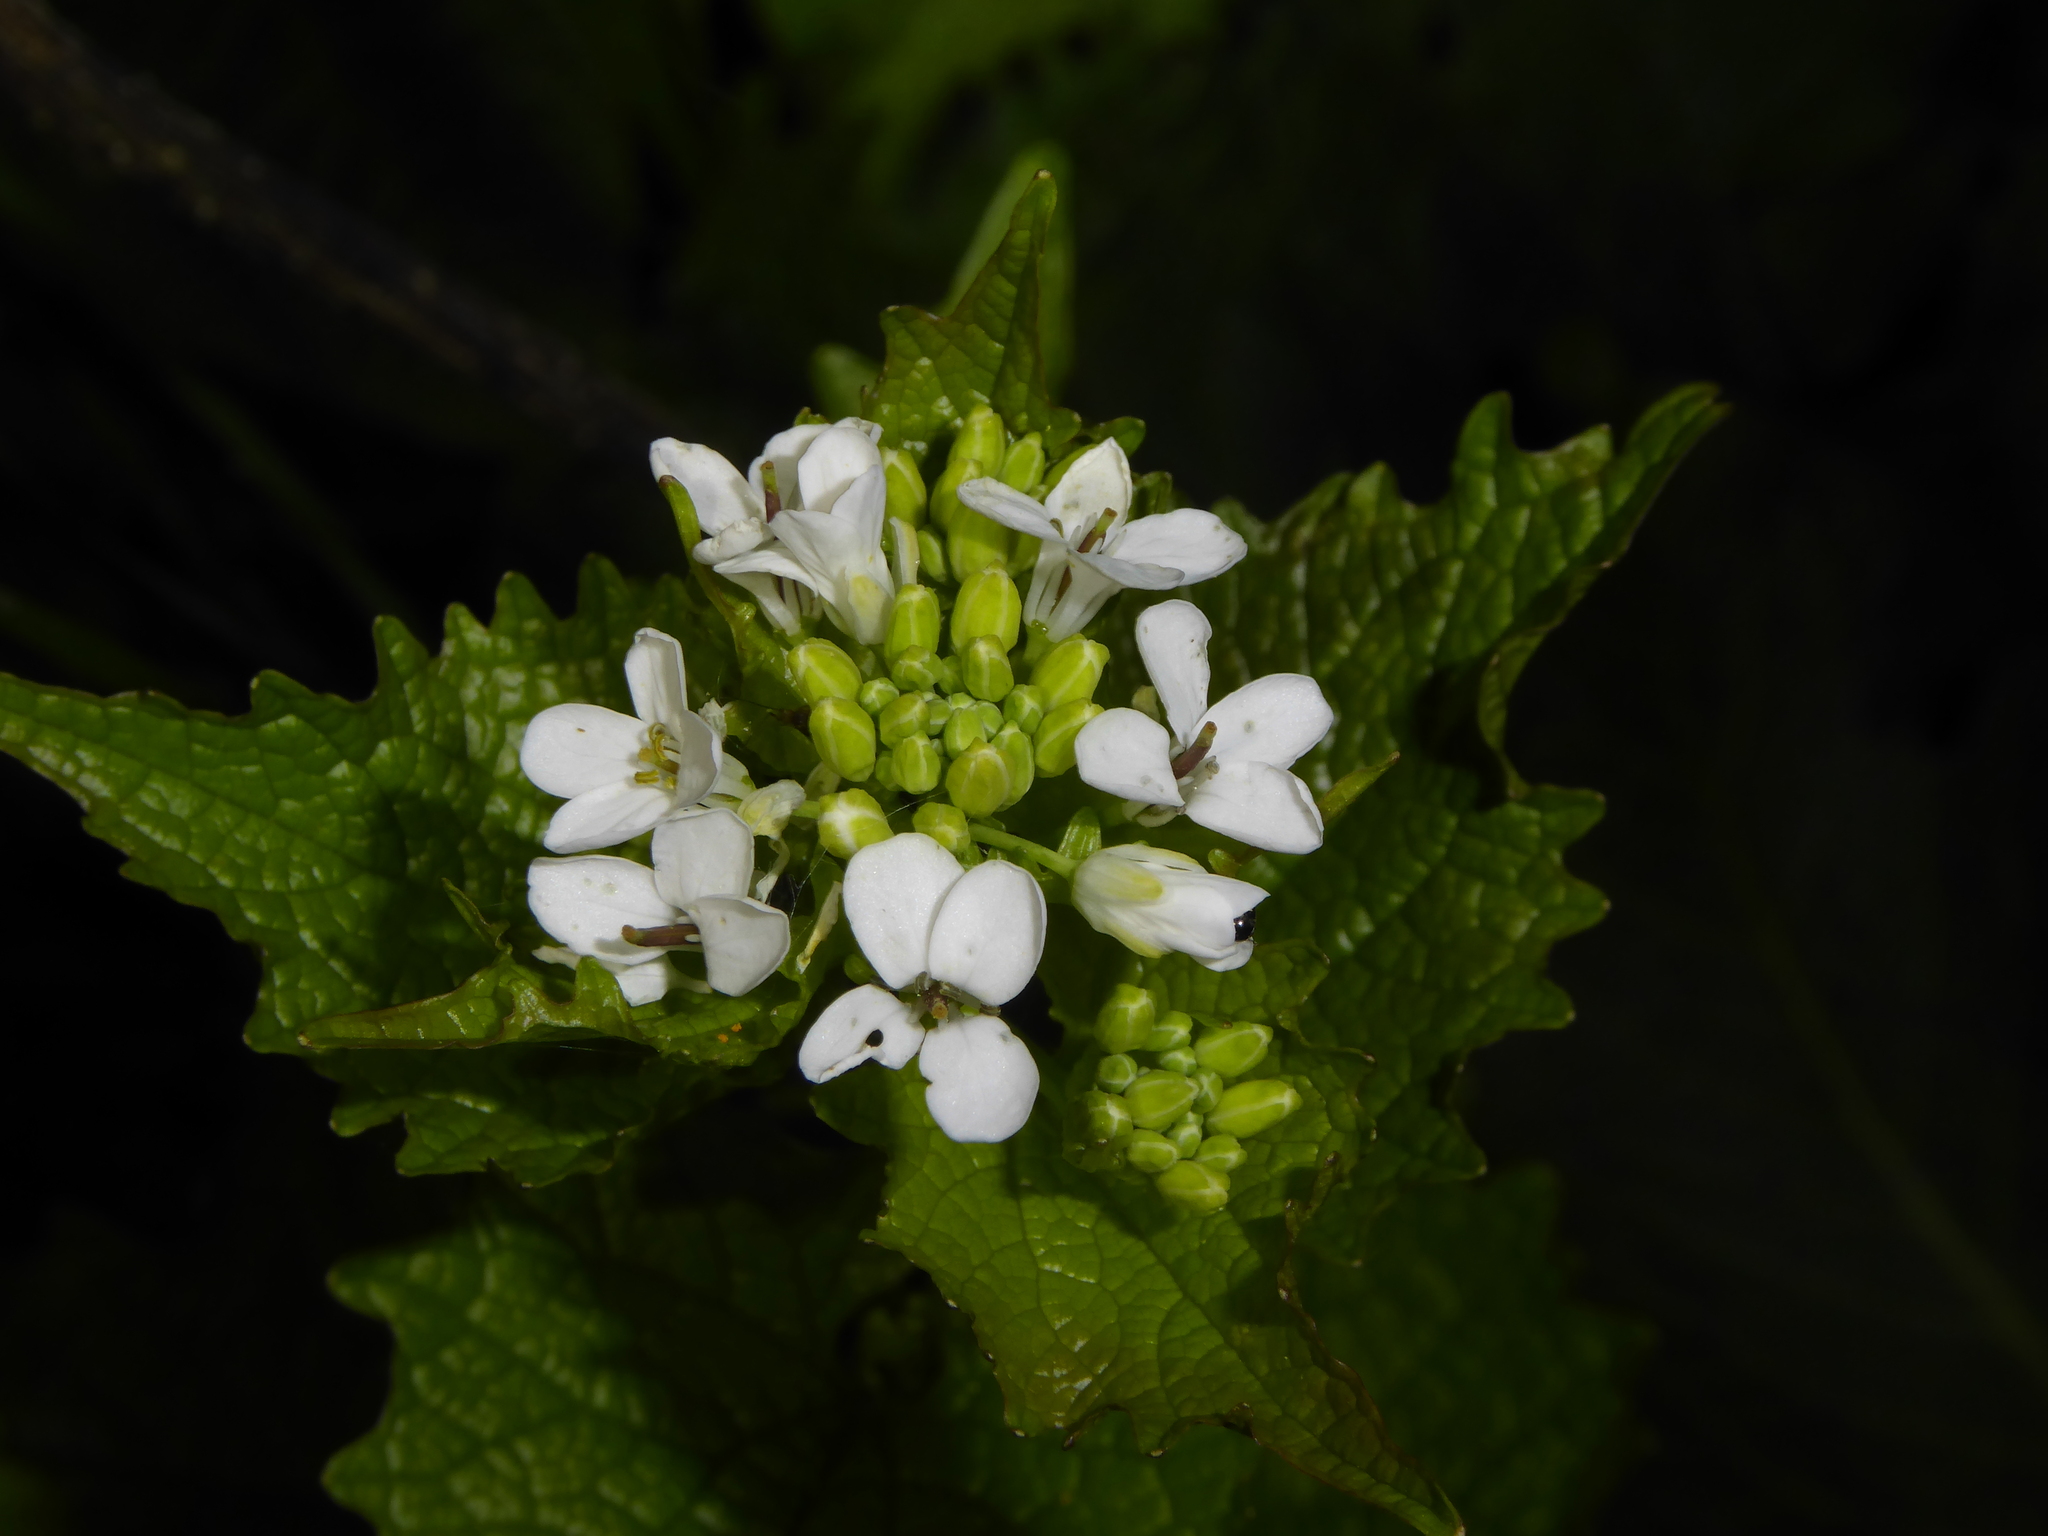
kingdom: Plantae
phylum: Tracheophyta
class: Magnoliopsida
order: Brassicales
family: Brassicaceae
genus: Alliaria
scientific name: Alliaria petiolata
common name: Garlic mustard
